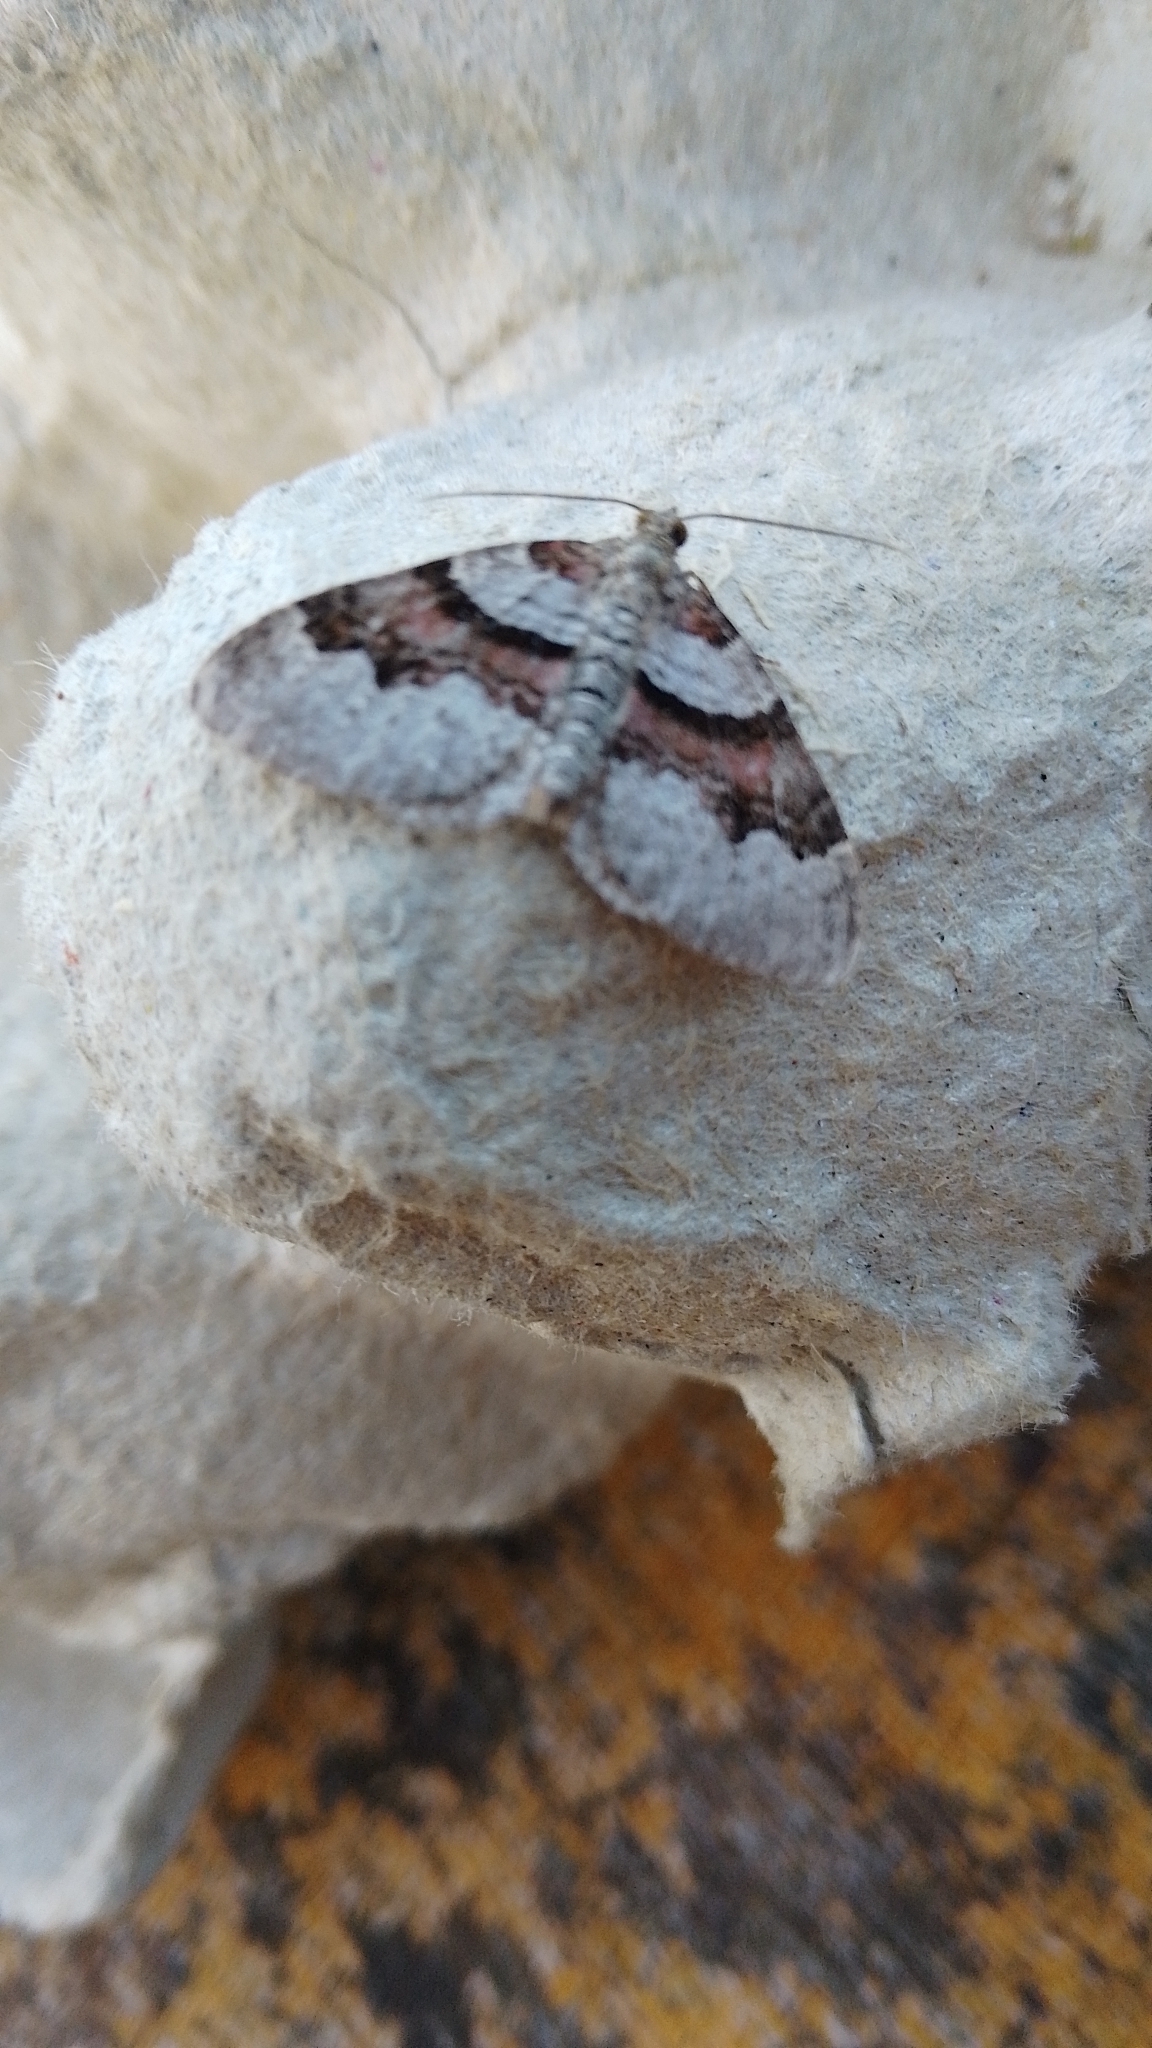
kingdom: Animalia
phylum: Arthropoda
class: Insecta
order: Lepidoptera
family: Geometridae
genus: Xanthorhoe
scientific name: Xanthorhoe designata
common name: Flame carpet
